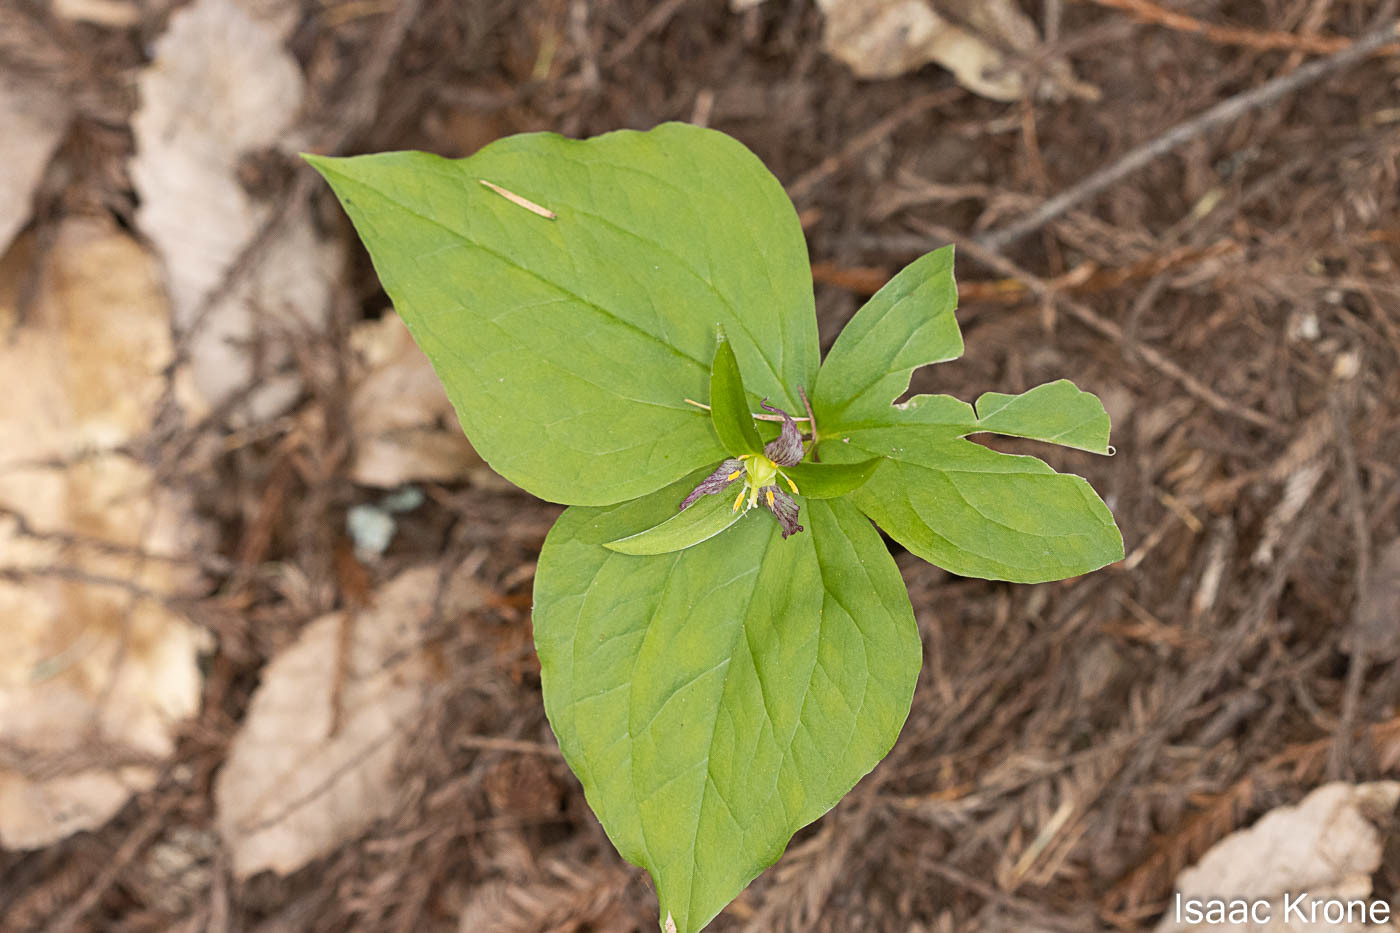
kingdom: Plantae
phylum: Tracheophyta
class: Liliopsida
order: Liliales
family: Melanthiaceae
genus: Trillium
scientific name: Trillium ovatum
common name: Pacific trillium
